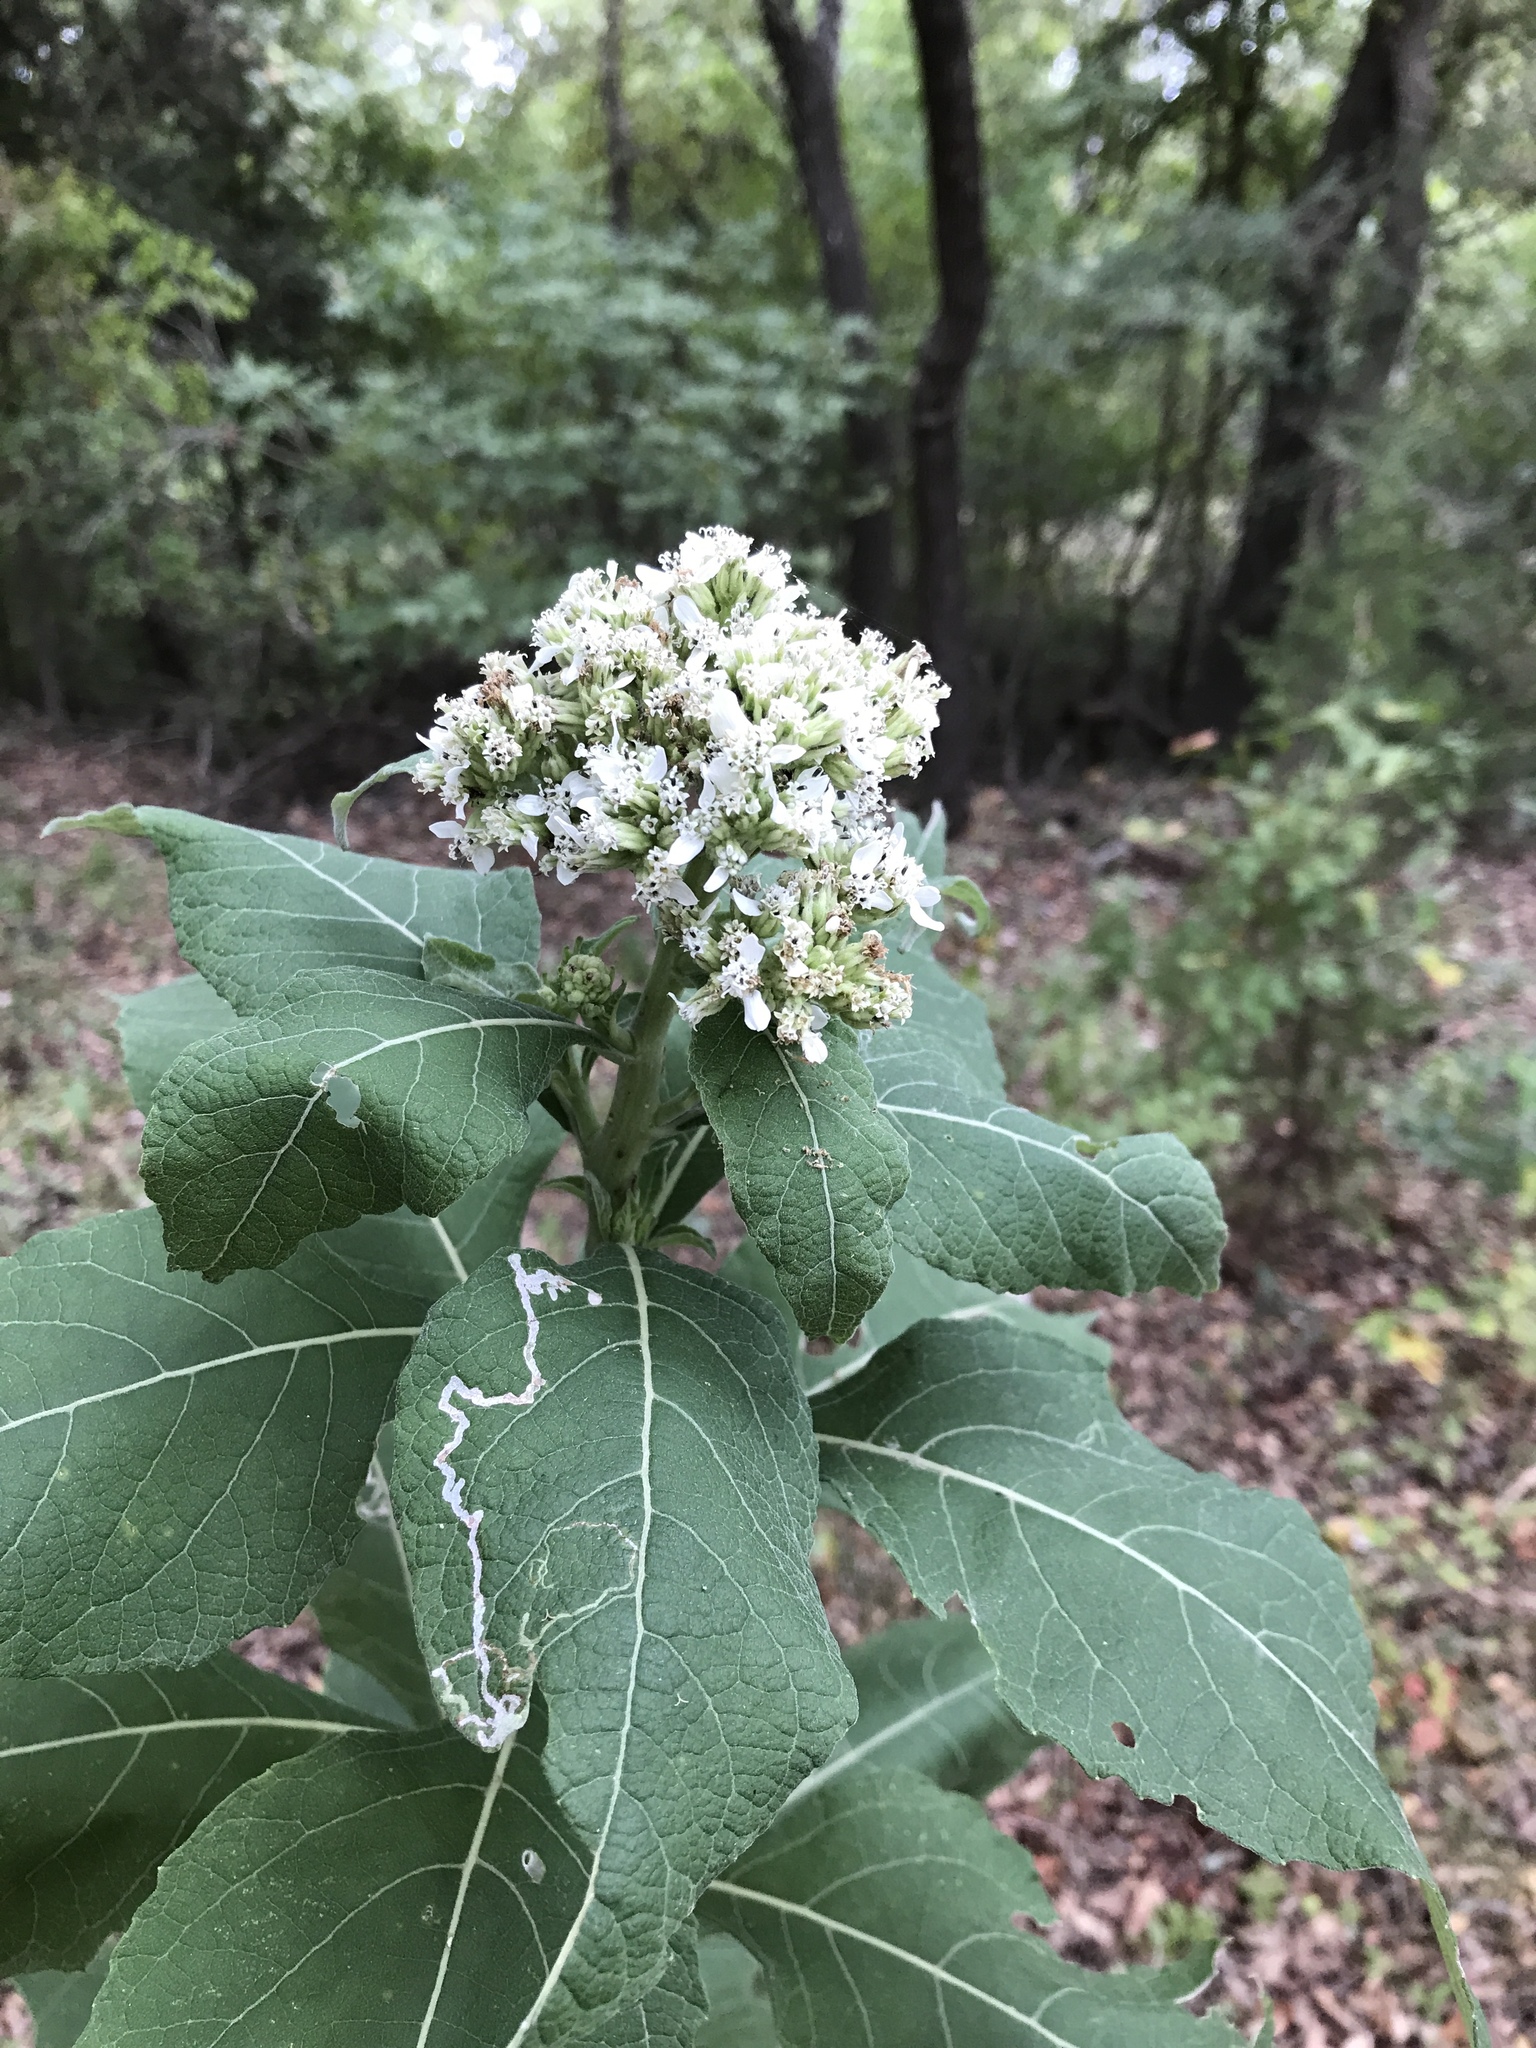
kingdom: Plantae
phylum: Tracheophyta
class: Magnoliopsida
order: Asterales
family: Asteraceae
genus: Verbesina
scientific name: Verbesina virginica
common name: Frostweed
